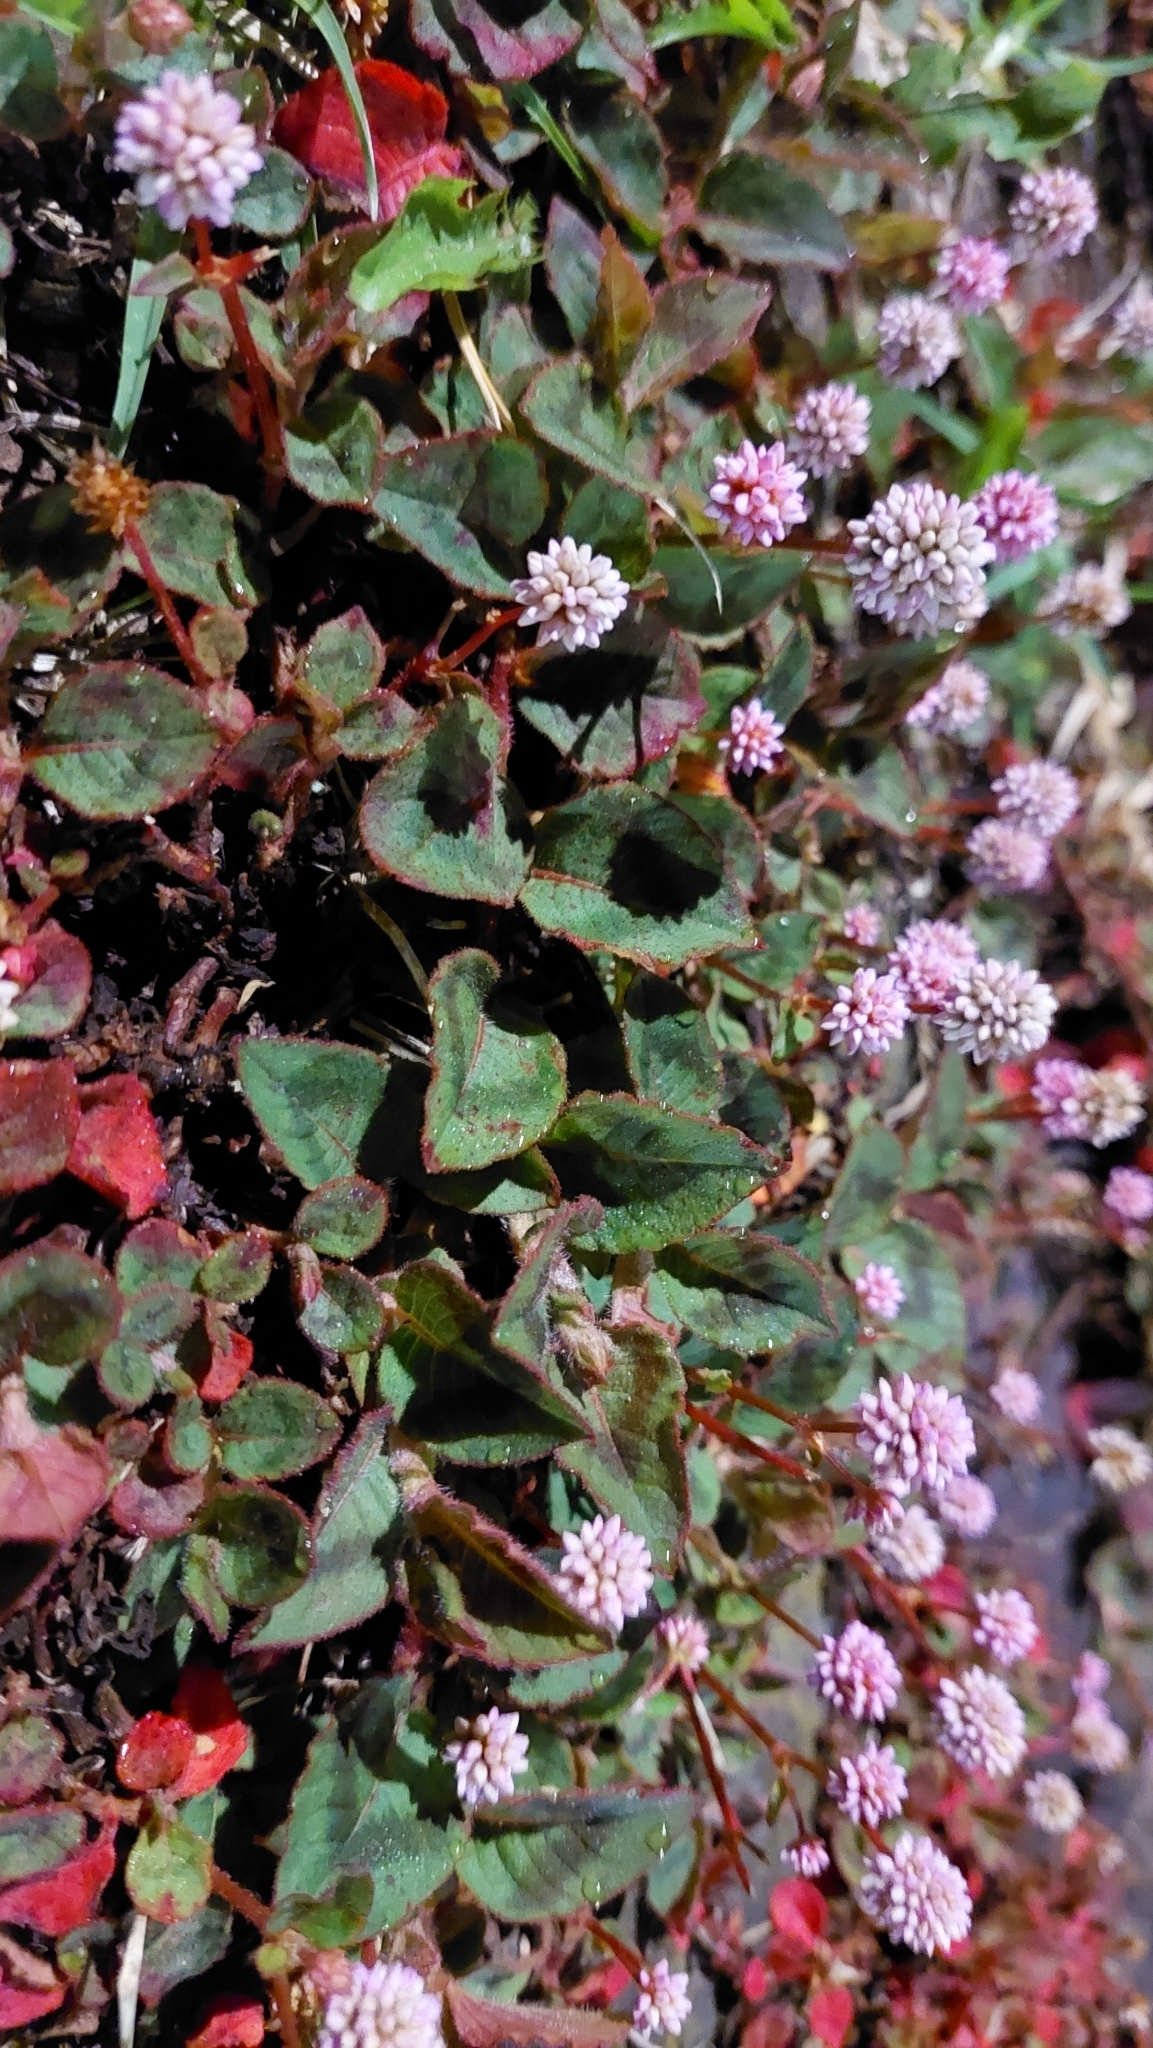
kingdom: Plantae
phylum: Tracheophyta
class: Magnoliopsida
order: Caryophyllales
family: Polygonaceae
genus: Persicaria
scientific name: Persicaria capitata
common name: Pinkhead smartweed
